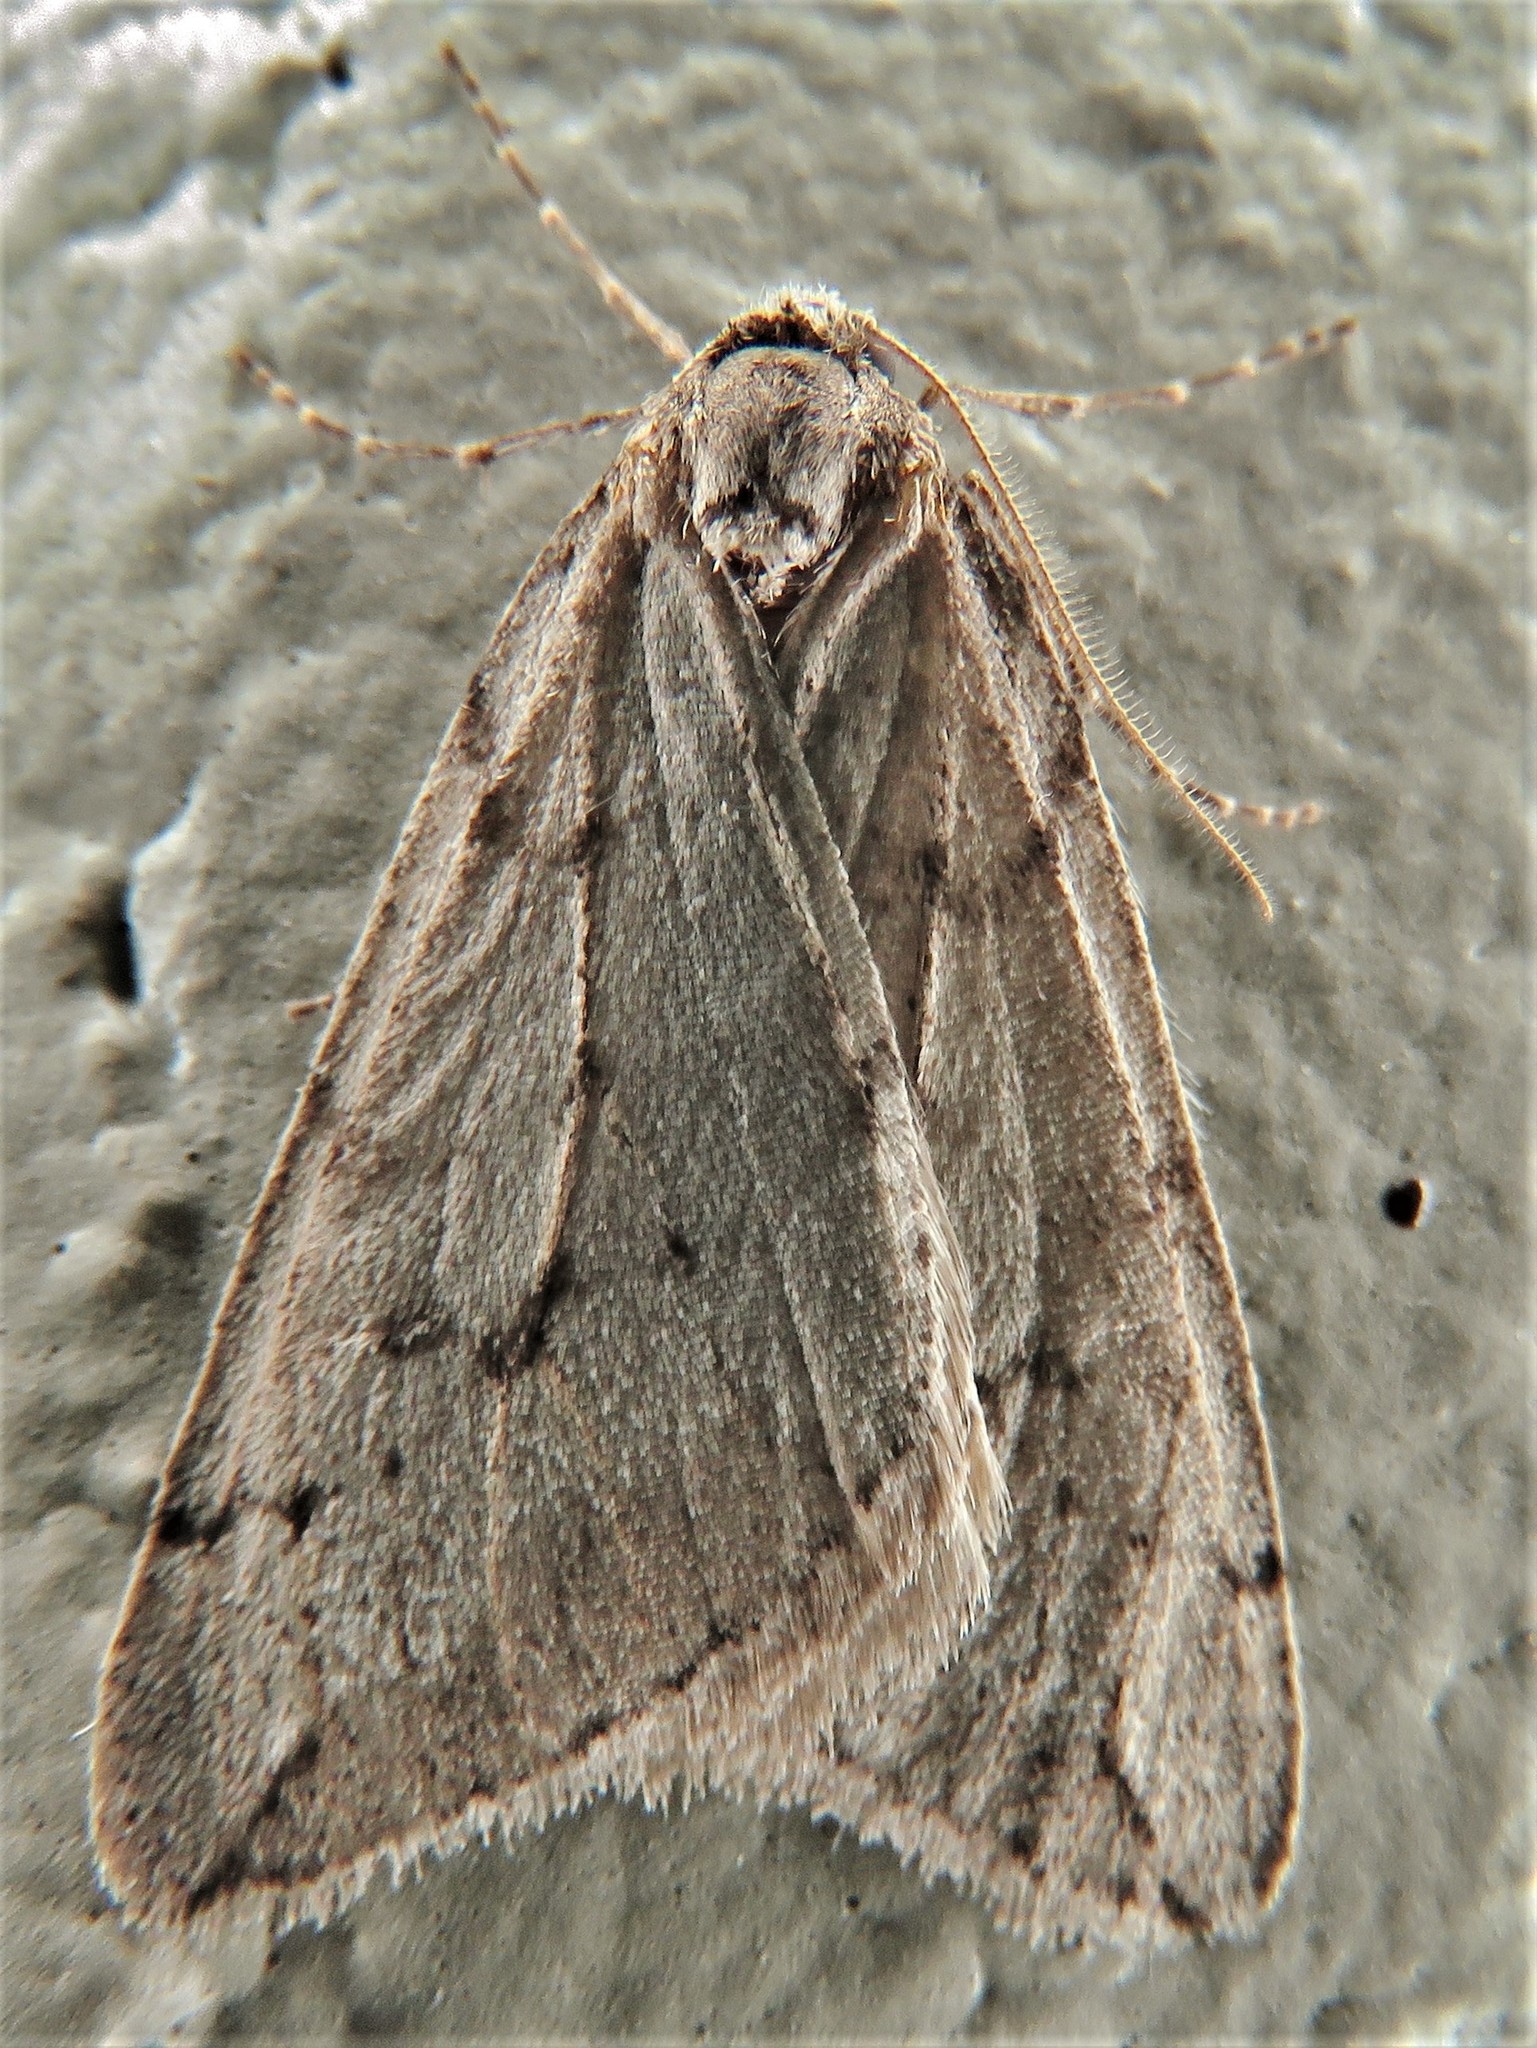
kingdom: Animalia
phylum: Arthropoda
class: Insecta
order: Lepidoptera
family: Geometridae
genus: Paleacrita
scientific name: Paleacrita vernata
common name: Spring cankerworm
